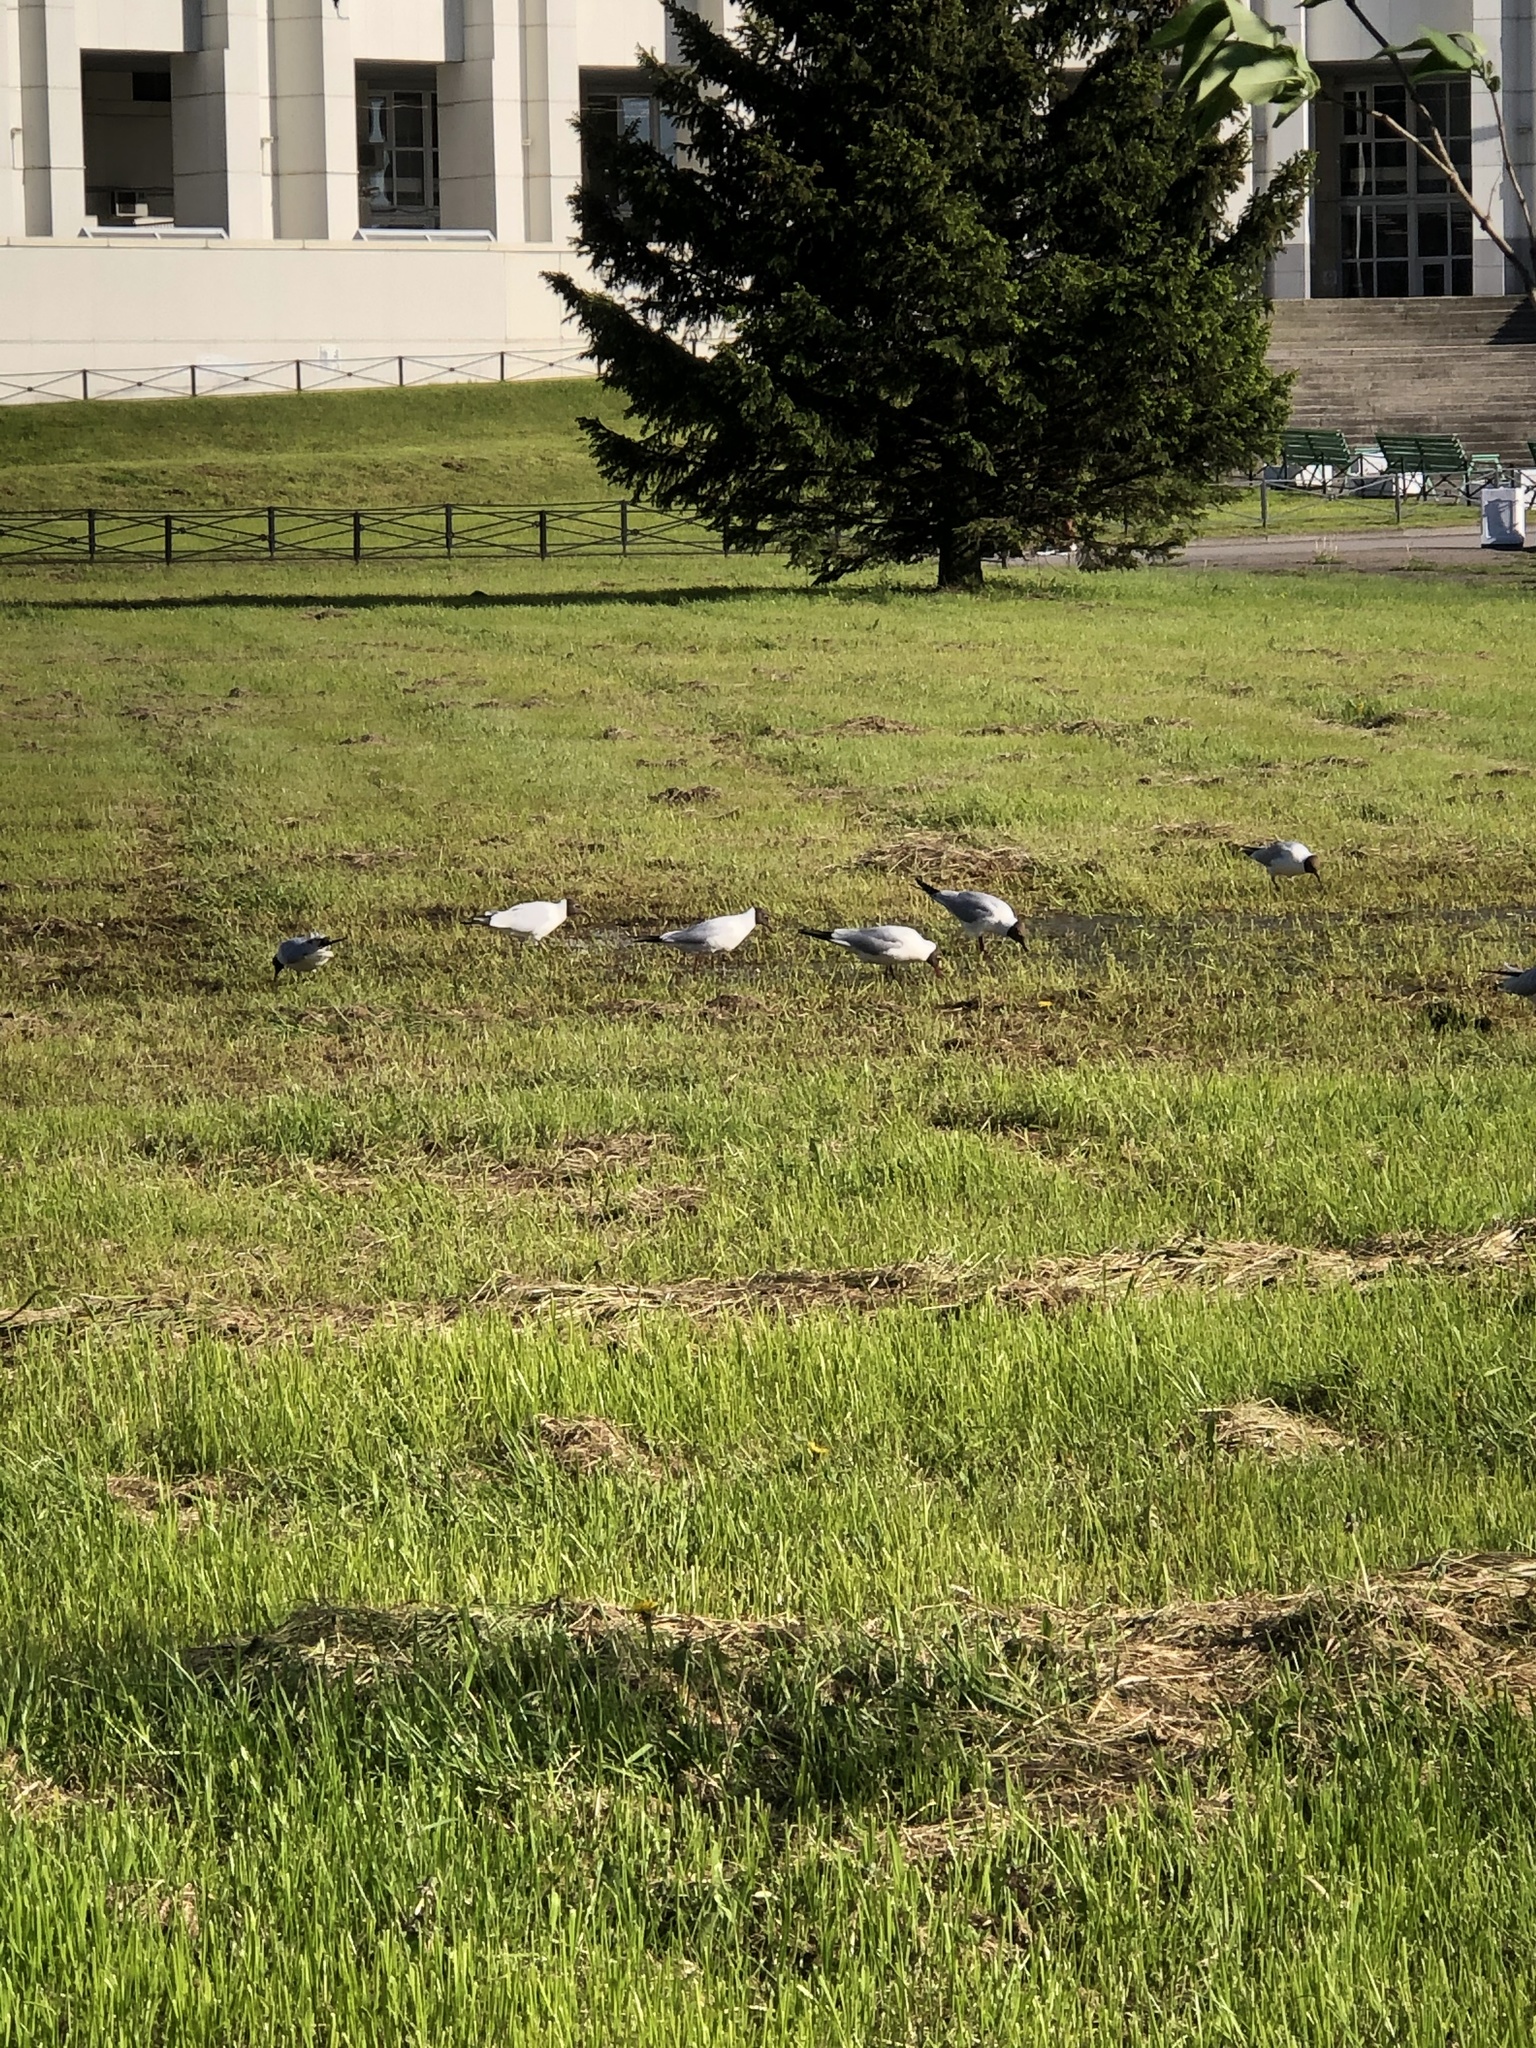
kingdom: Animalia
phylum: Chordata
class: Aves
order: Charadriiformes
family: Laridae
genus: Chroicocephalus
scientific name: Chroicocephalus ridibundus
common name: Black-headed gull
